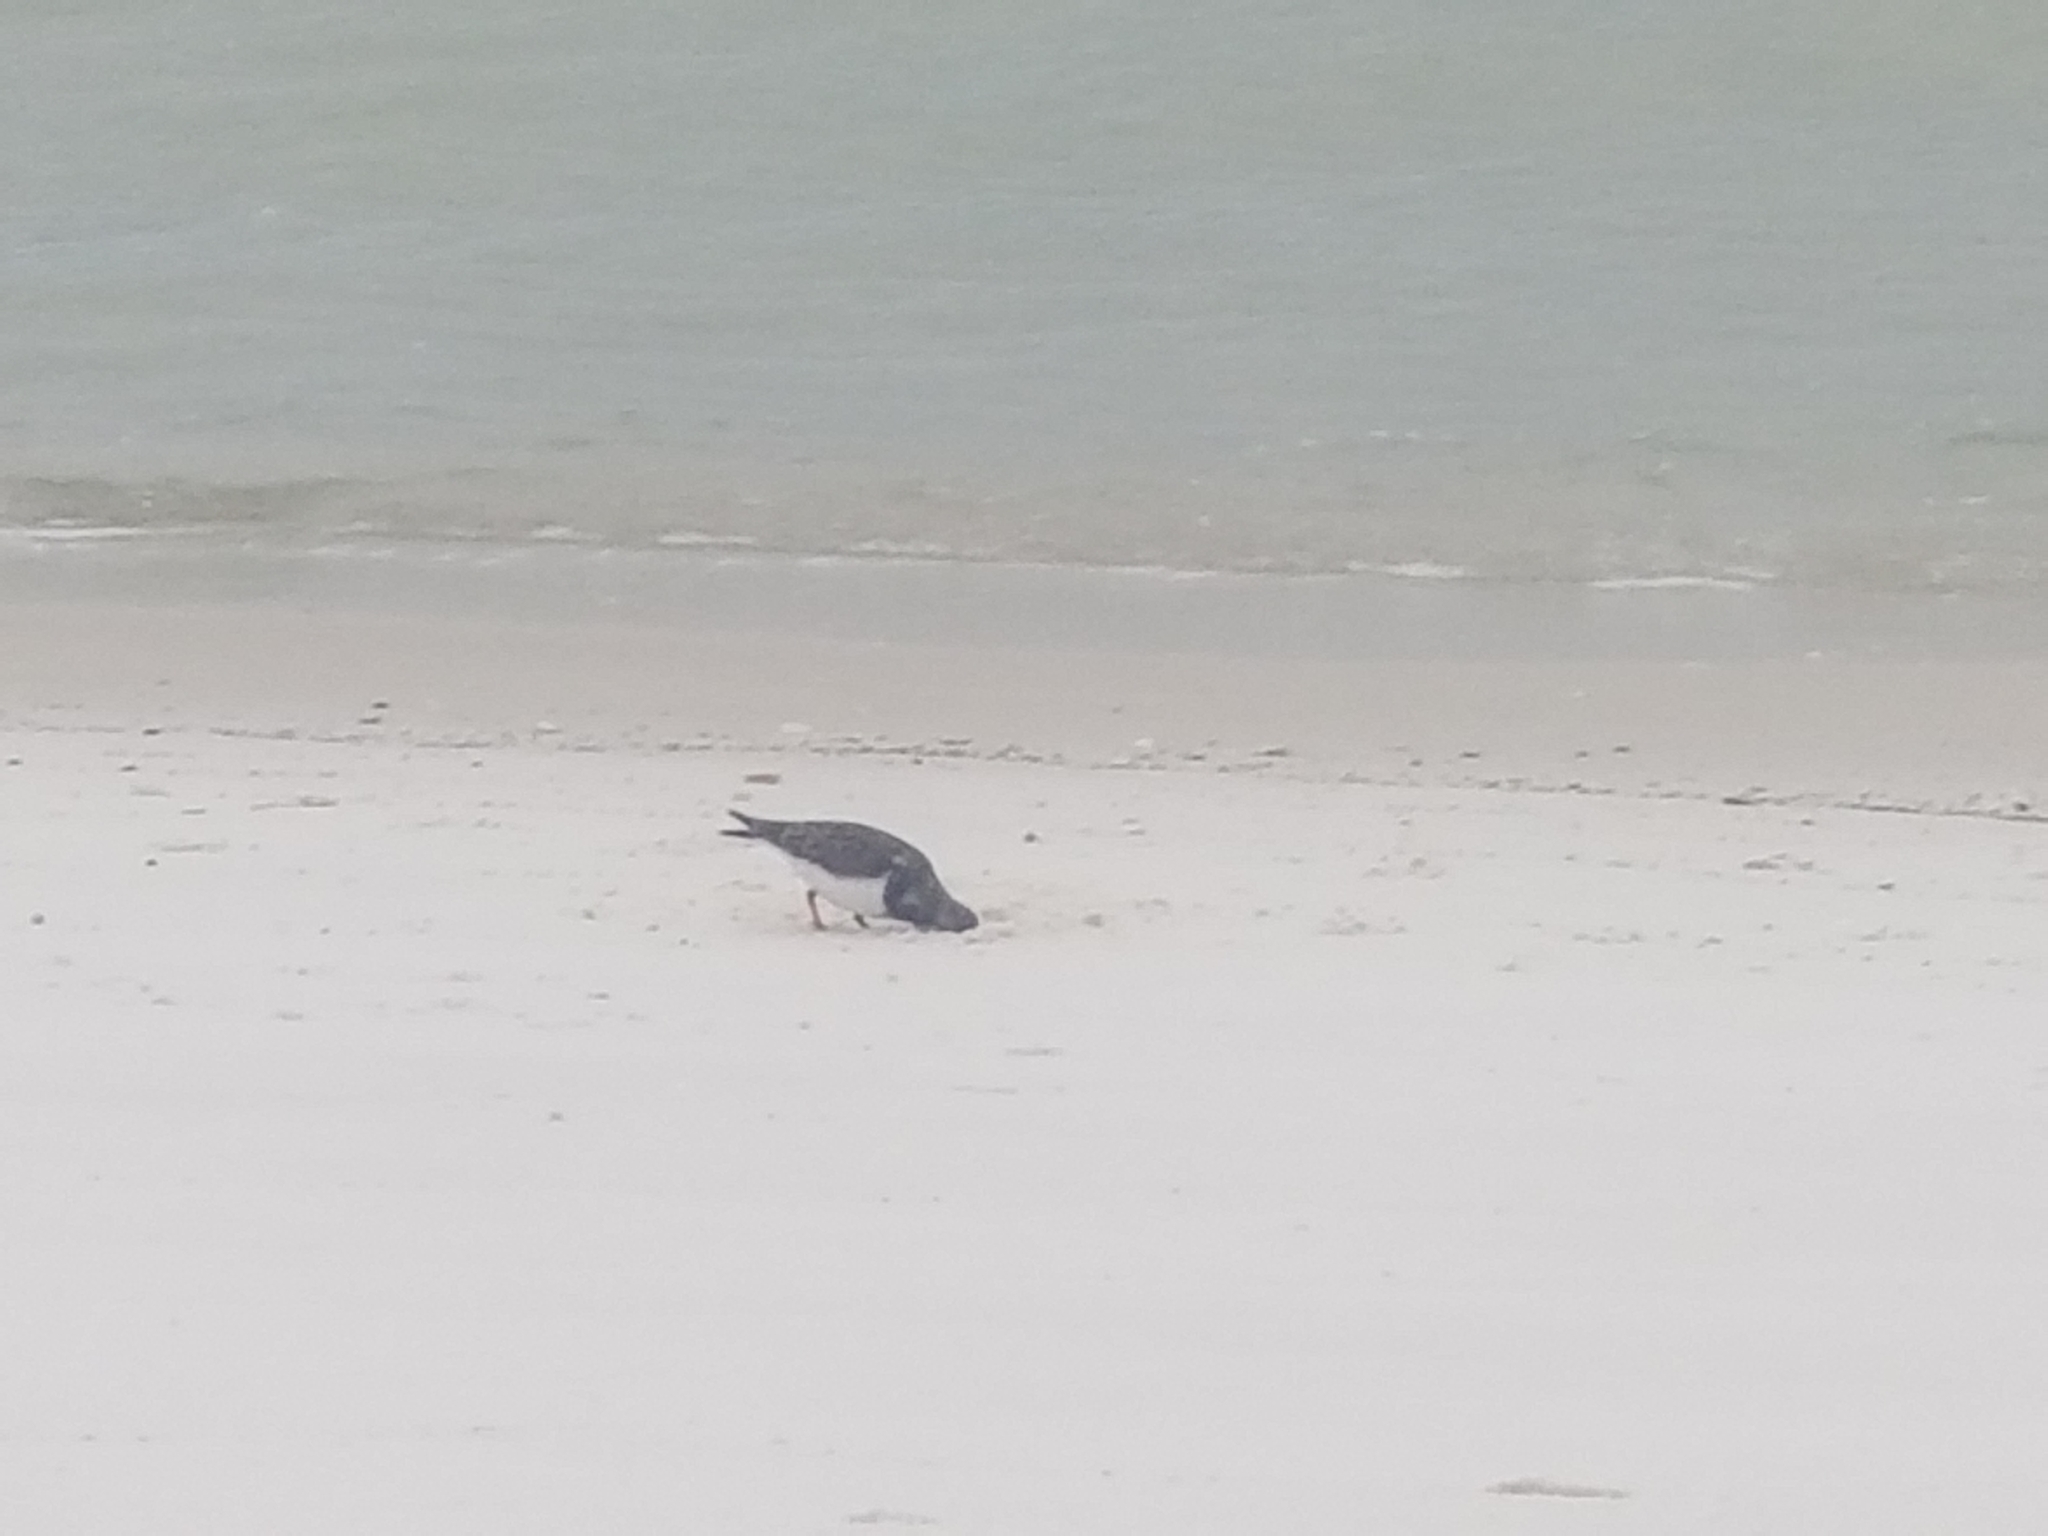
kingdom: Animalia
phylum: Chordata
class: Aves
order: Charadriiformes
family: Scolopacidae
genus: Arenaria
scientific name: Arenaria interpres
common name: Ruddy turnstone
